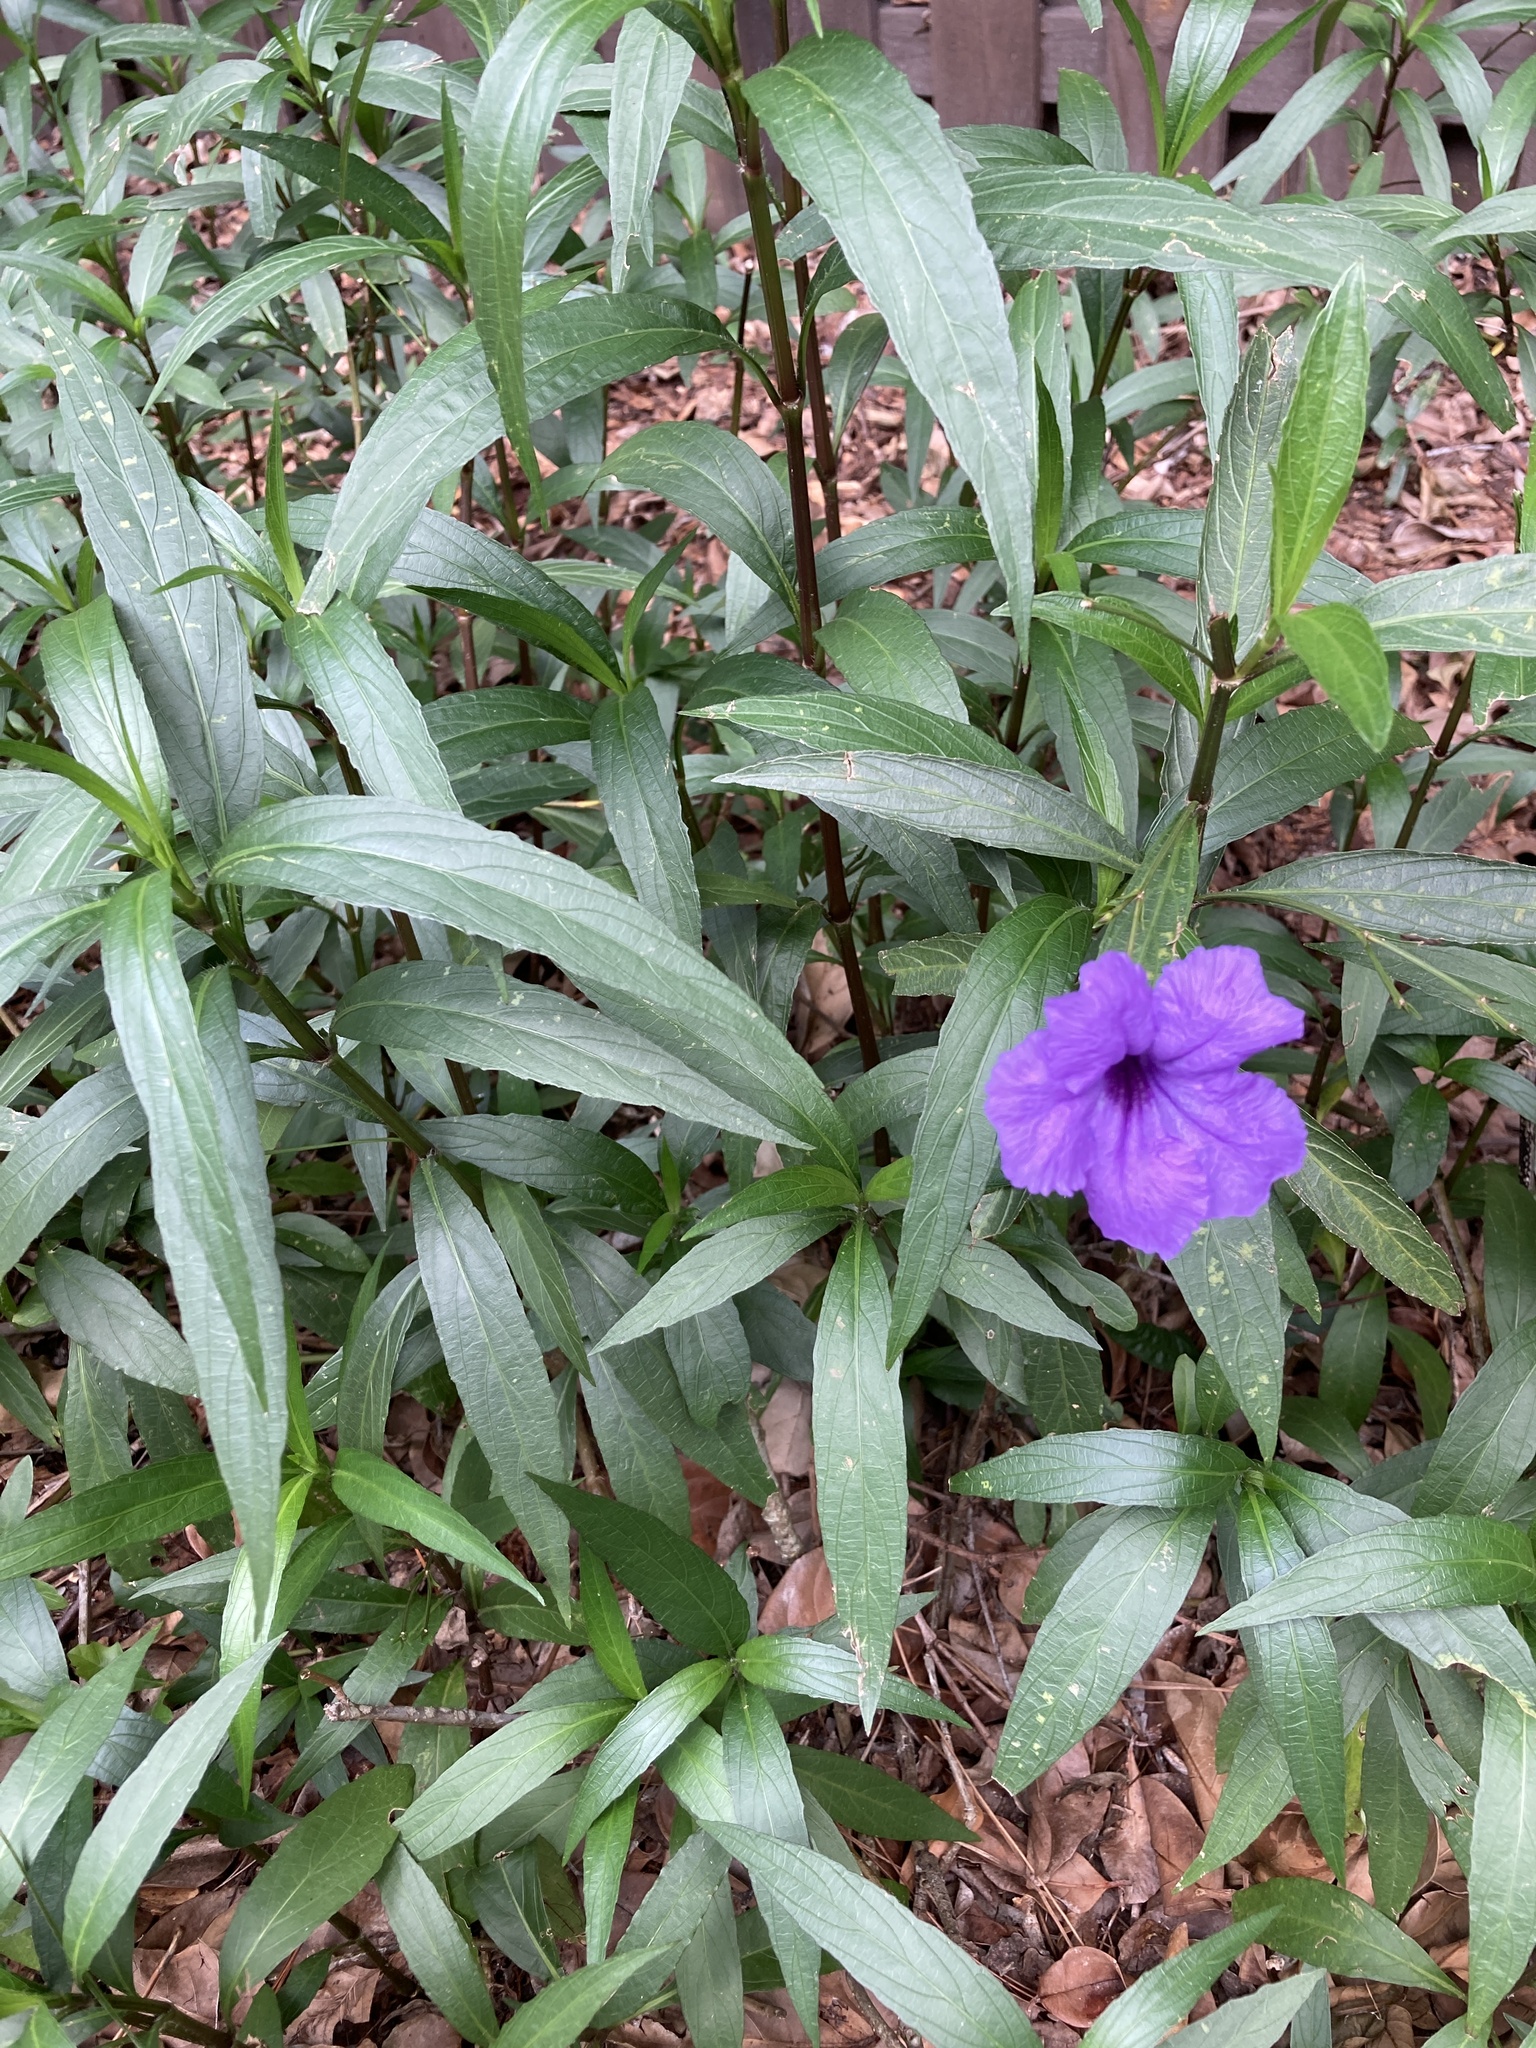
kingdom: Plantae
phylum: Tracheophyta
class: Magnoliopsida
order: Lamiales
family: Acanthaceae
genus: Ruellia
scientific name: Ruellia simplex
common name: Softseed wild petunia
